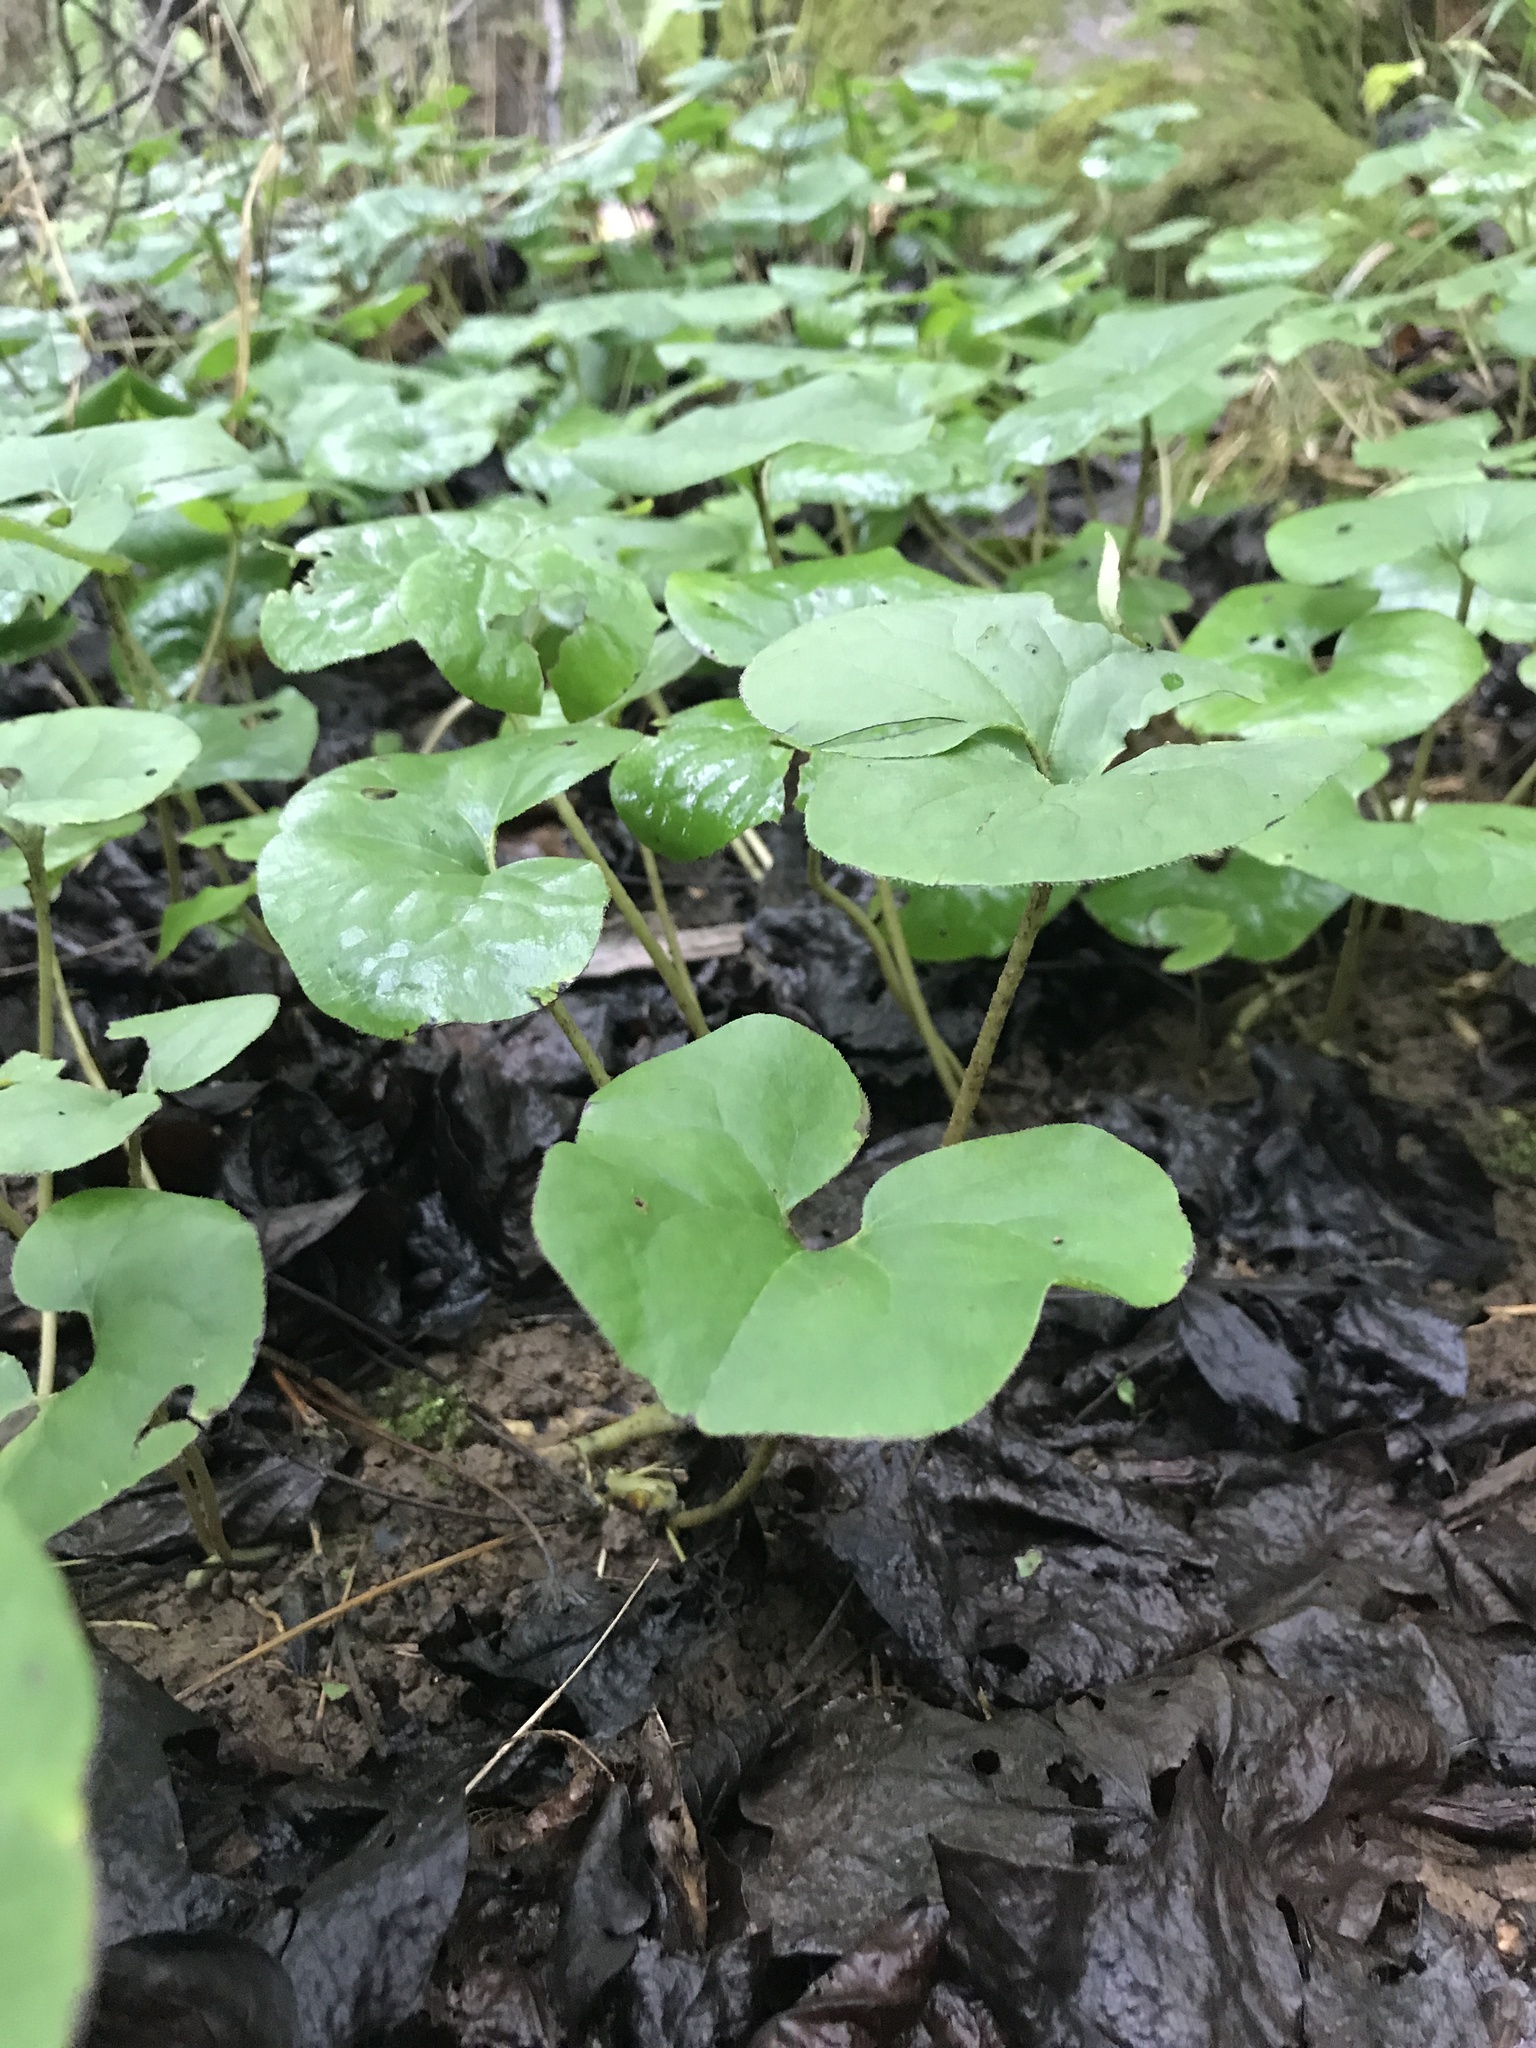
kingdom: Plantae
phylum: Tracheophyta
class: Magnoliopsida
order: Piperales
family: Aristolochiaceae
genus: Asarum
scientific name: Asarum canadense
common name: Wild ginger
